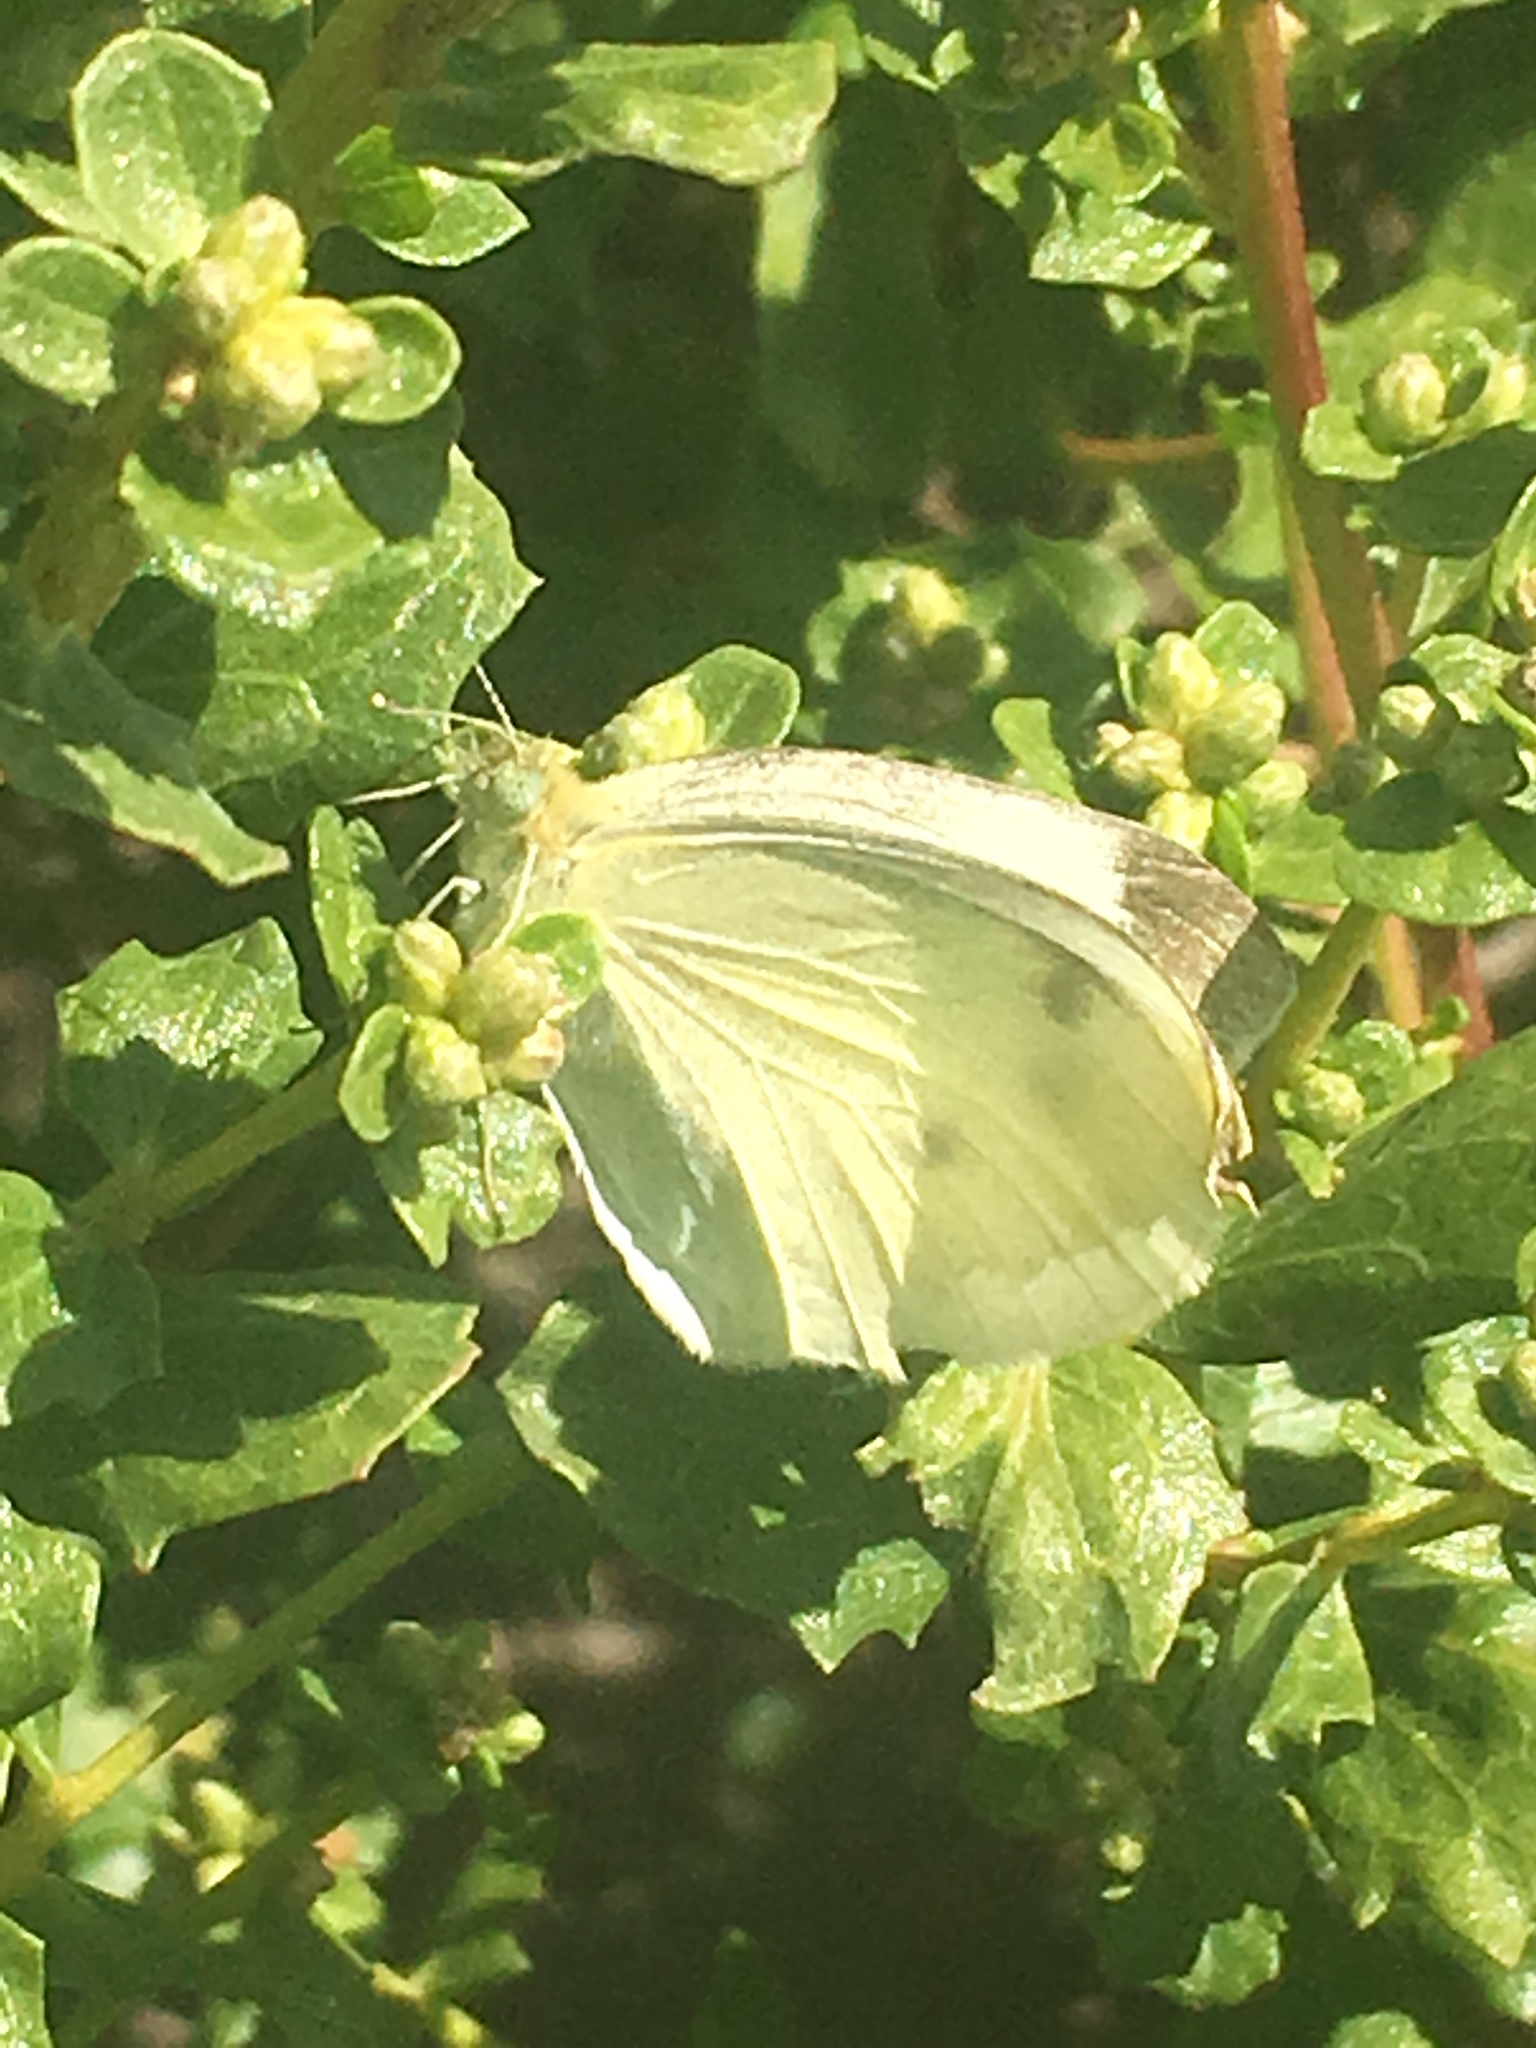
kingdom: Animalia
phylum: Arthropoda
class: Insecta
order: Lepidoptera
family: Pieridae
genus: Pieris
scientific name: Pieris rapae
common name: Small white
